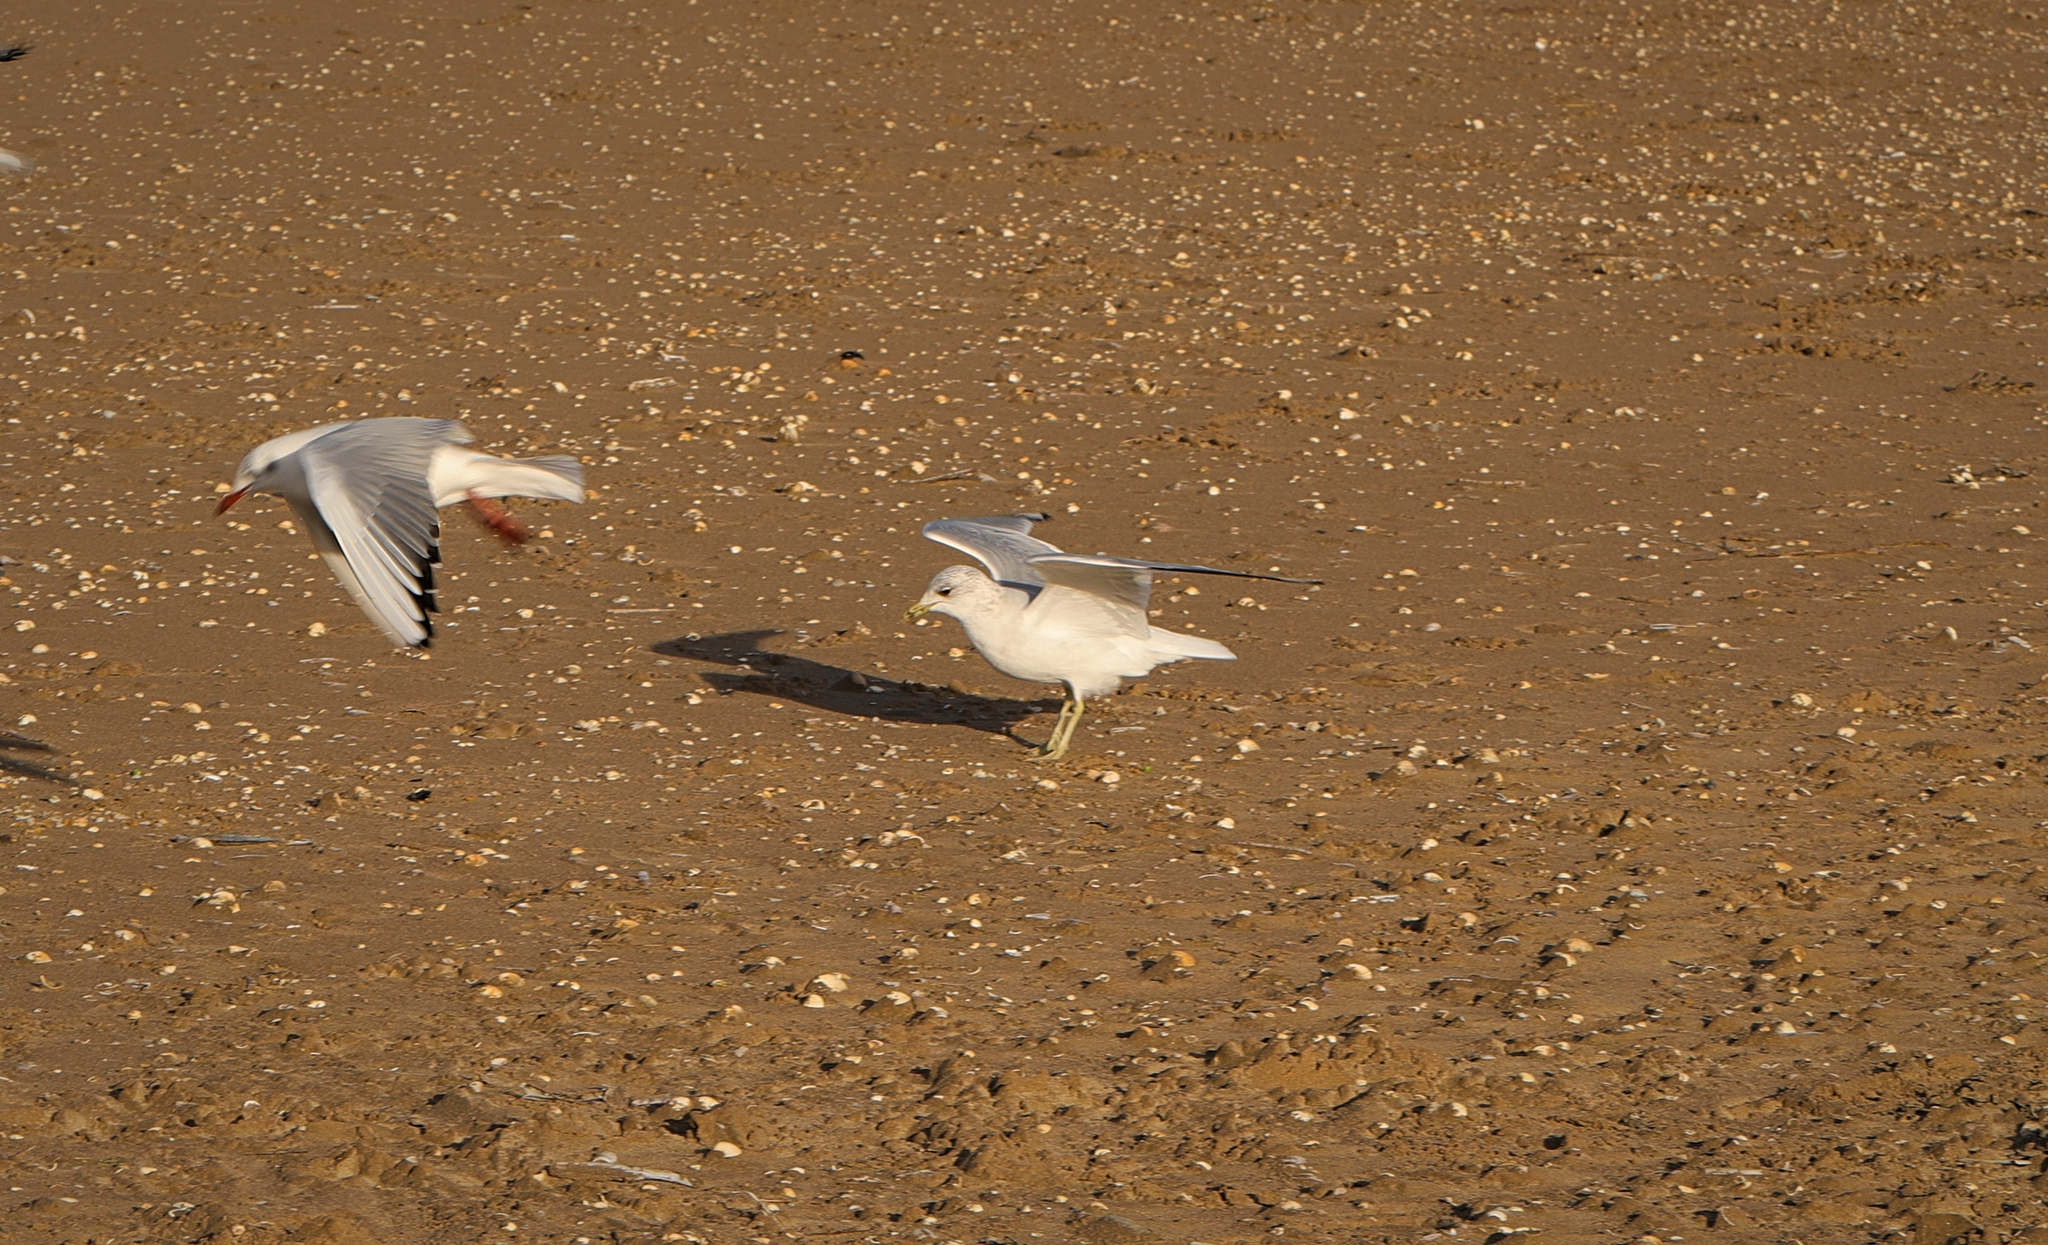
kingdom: Animalia
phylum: Chordata
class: Aves
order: Charadriiformes
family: Laridae
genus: Larus
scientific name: Larus canus
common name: Mew gull
